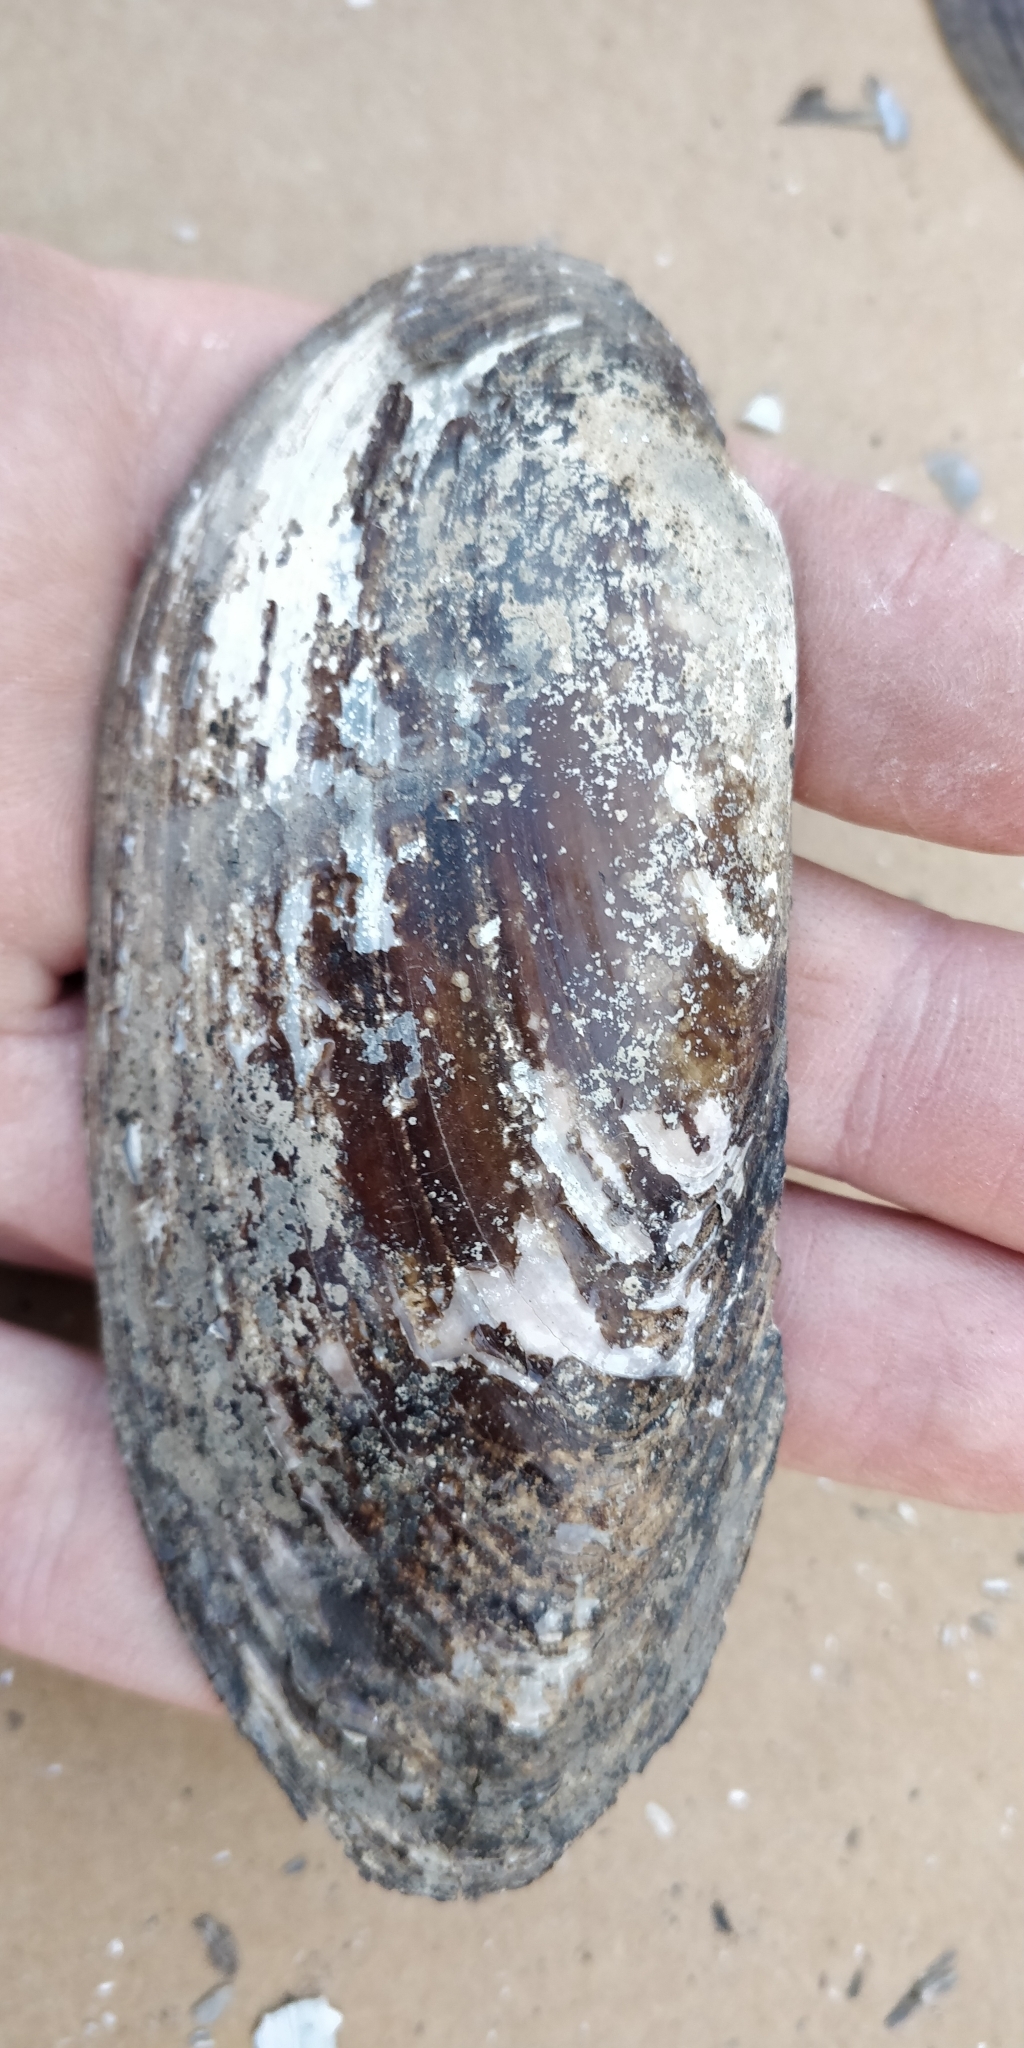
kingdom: Animalia
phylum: Mollusca
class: Bivalvia
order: Unionida
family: Unionidae
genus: Ligumia
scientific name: Ligumia recta
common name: Black sandshell
